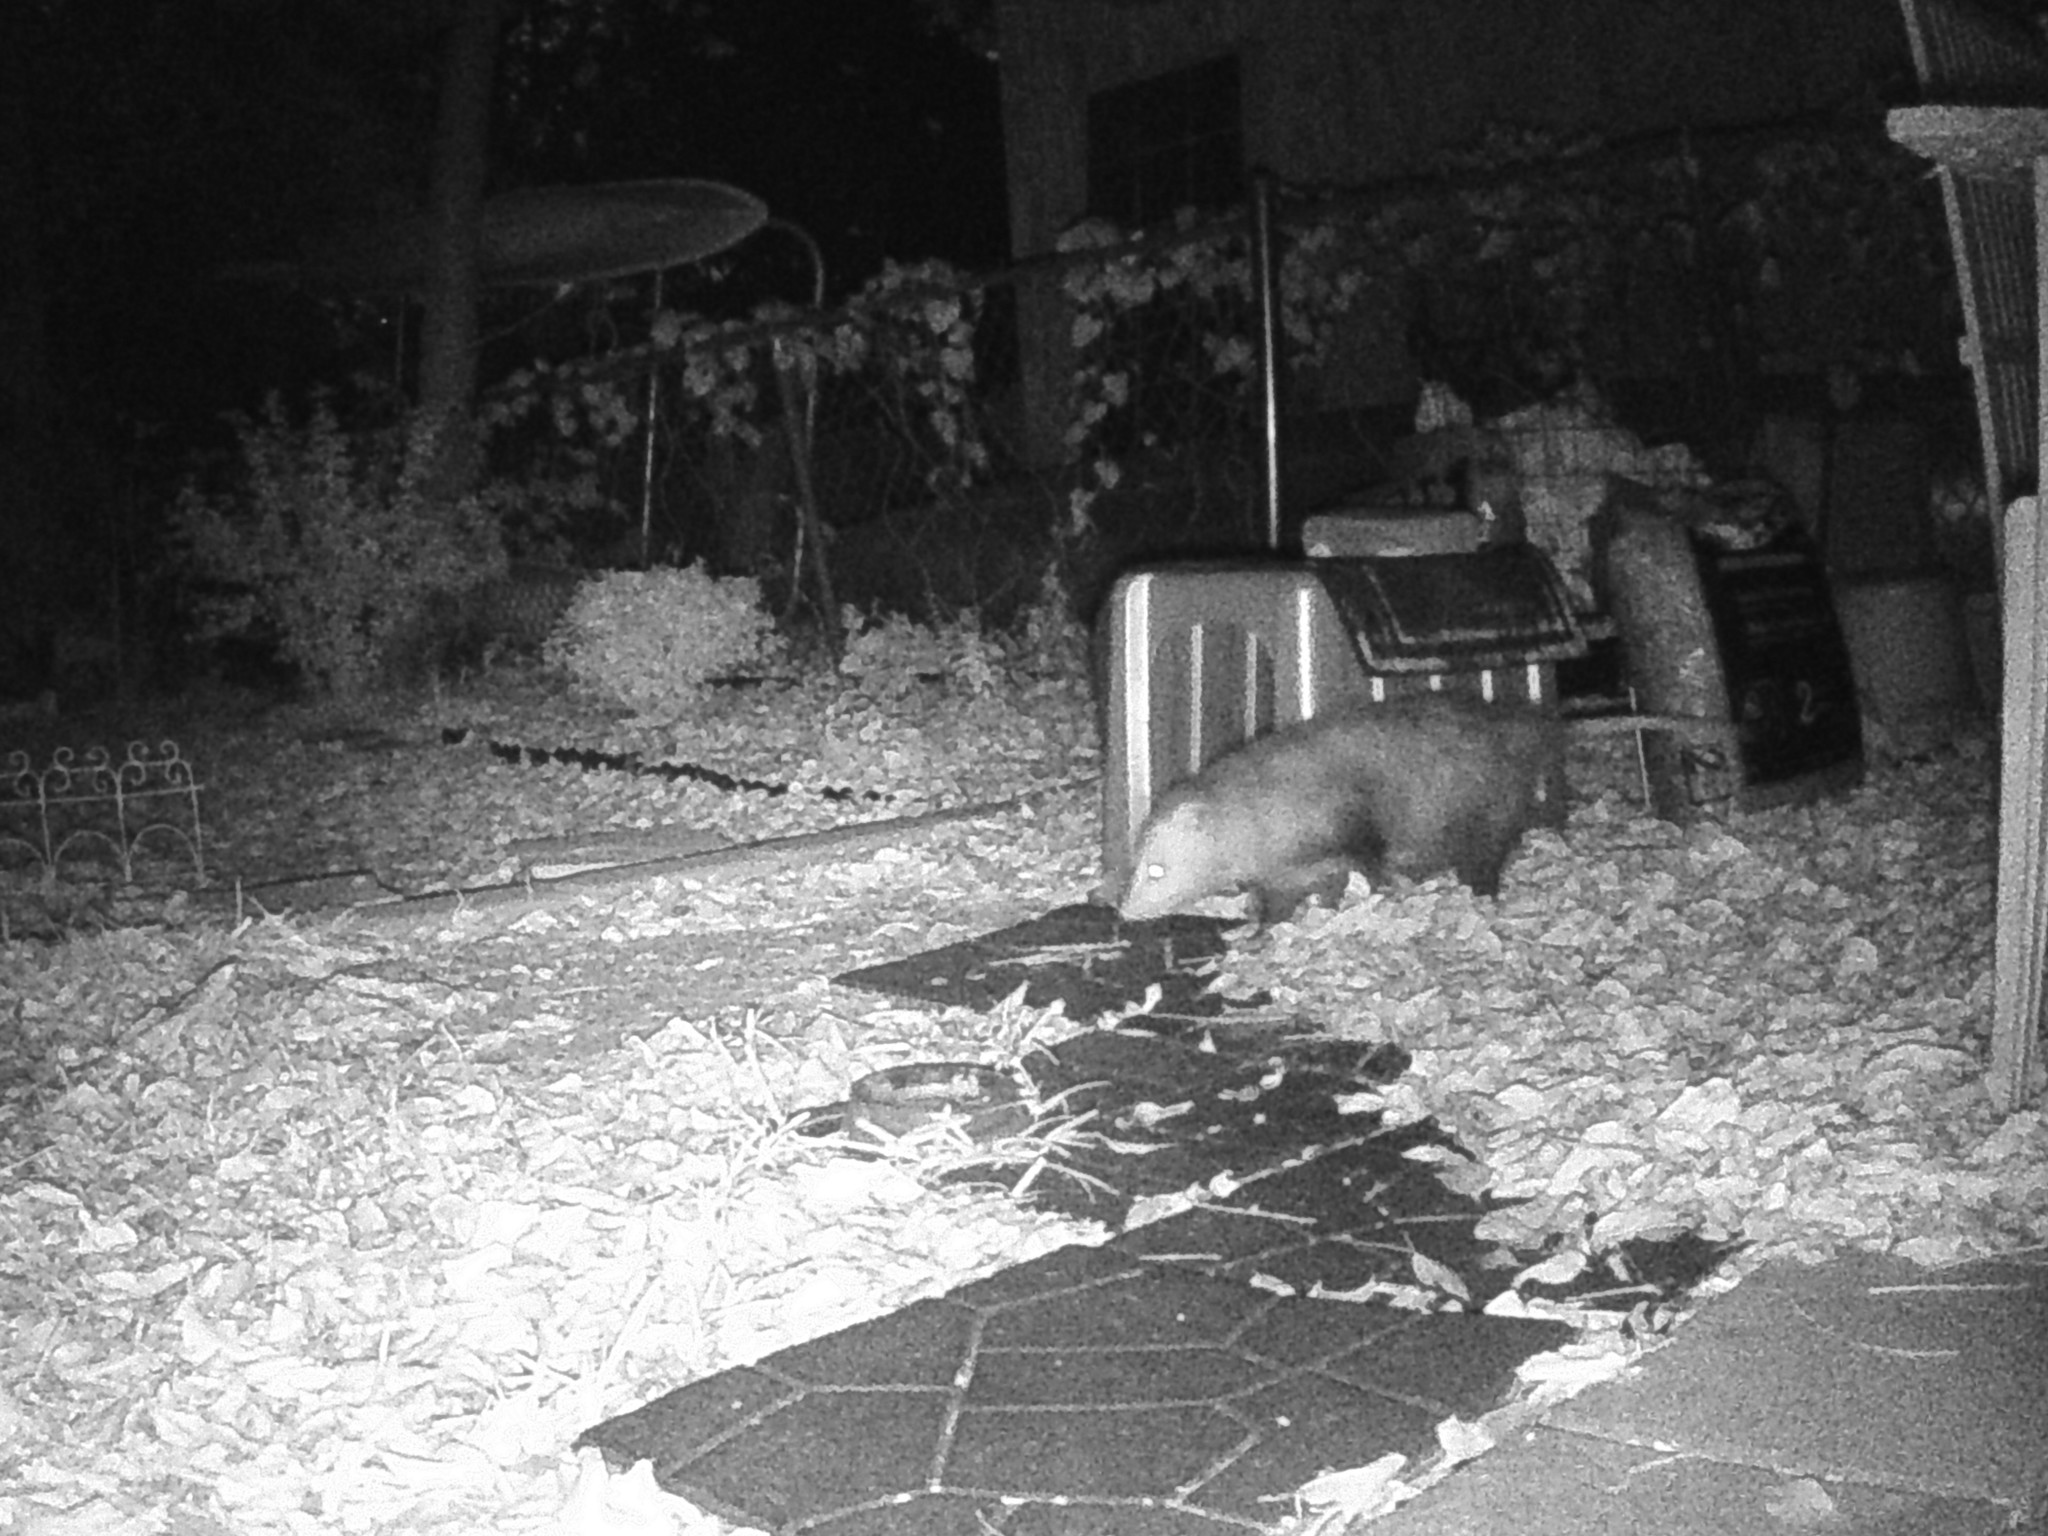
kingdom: Animalia
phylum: Chordata
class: Mammalia
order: Didelphimorphia
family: Didelphidae
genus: Didelphis
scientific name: Didelphis virginiana
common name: Virginia opossum
